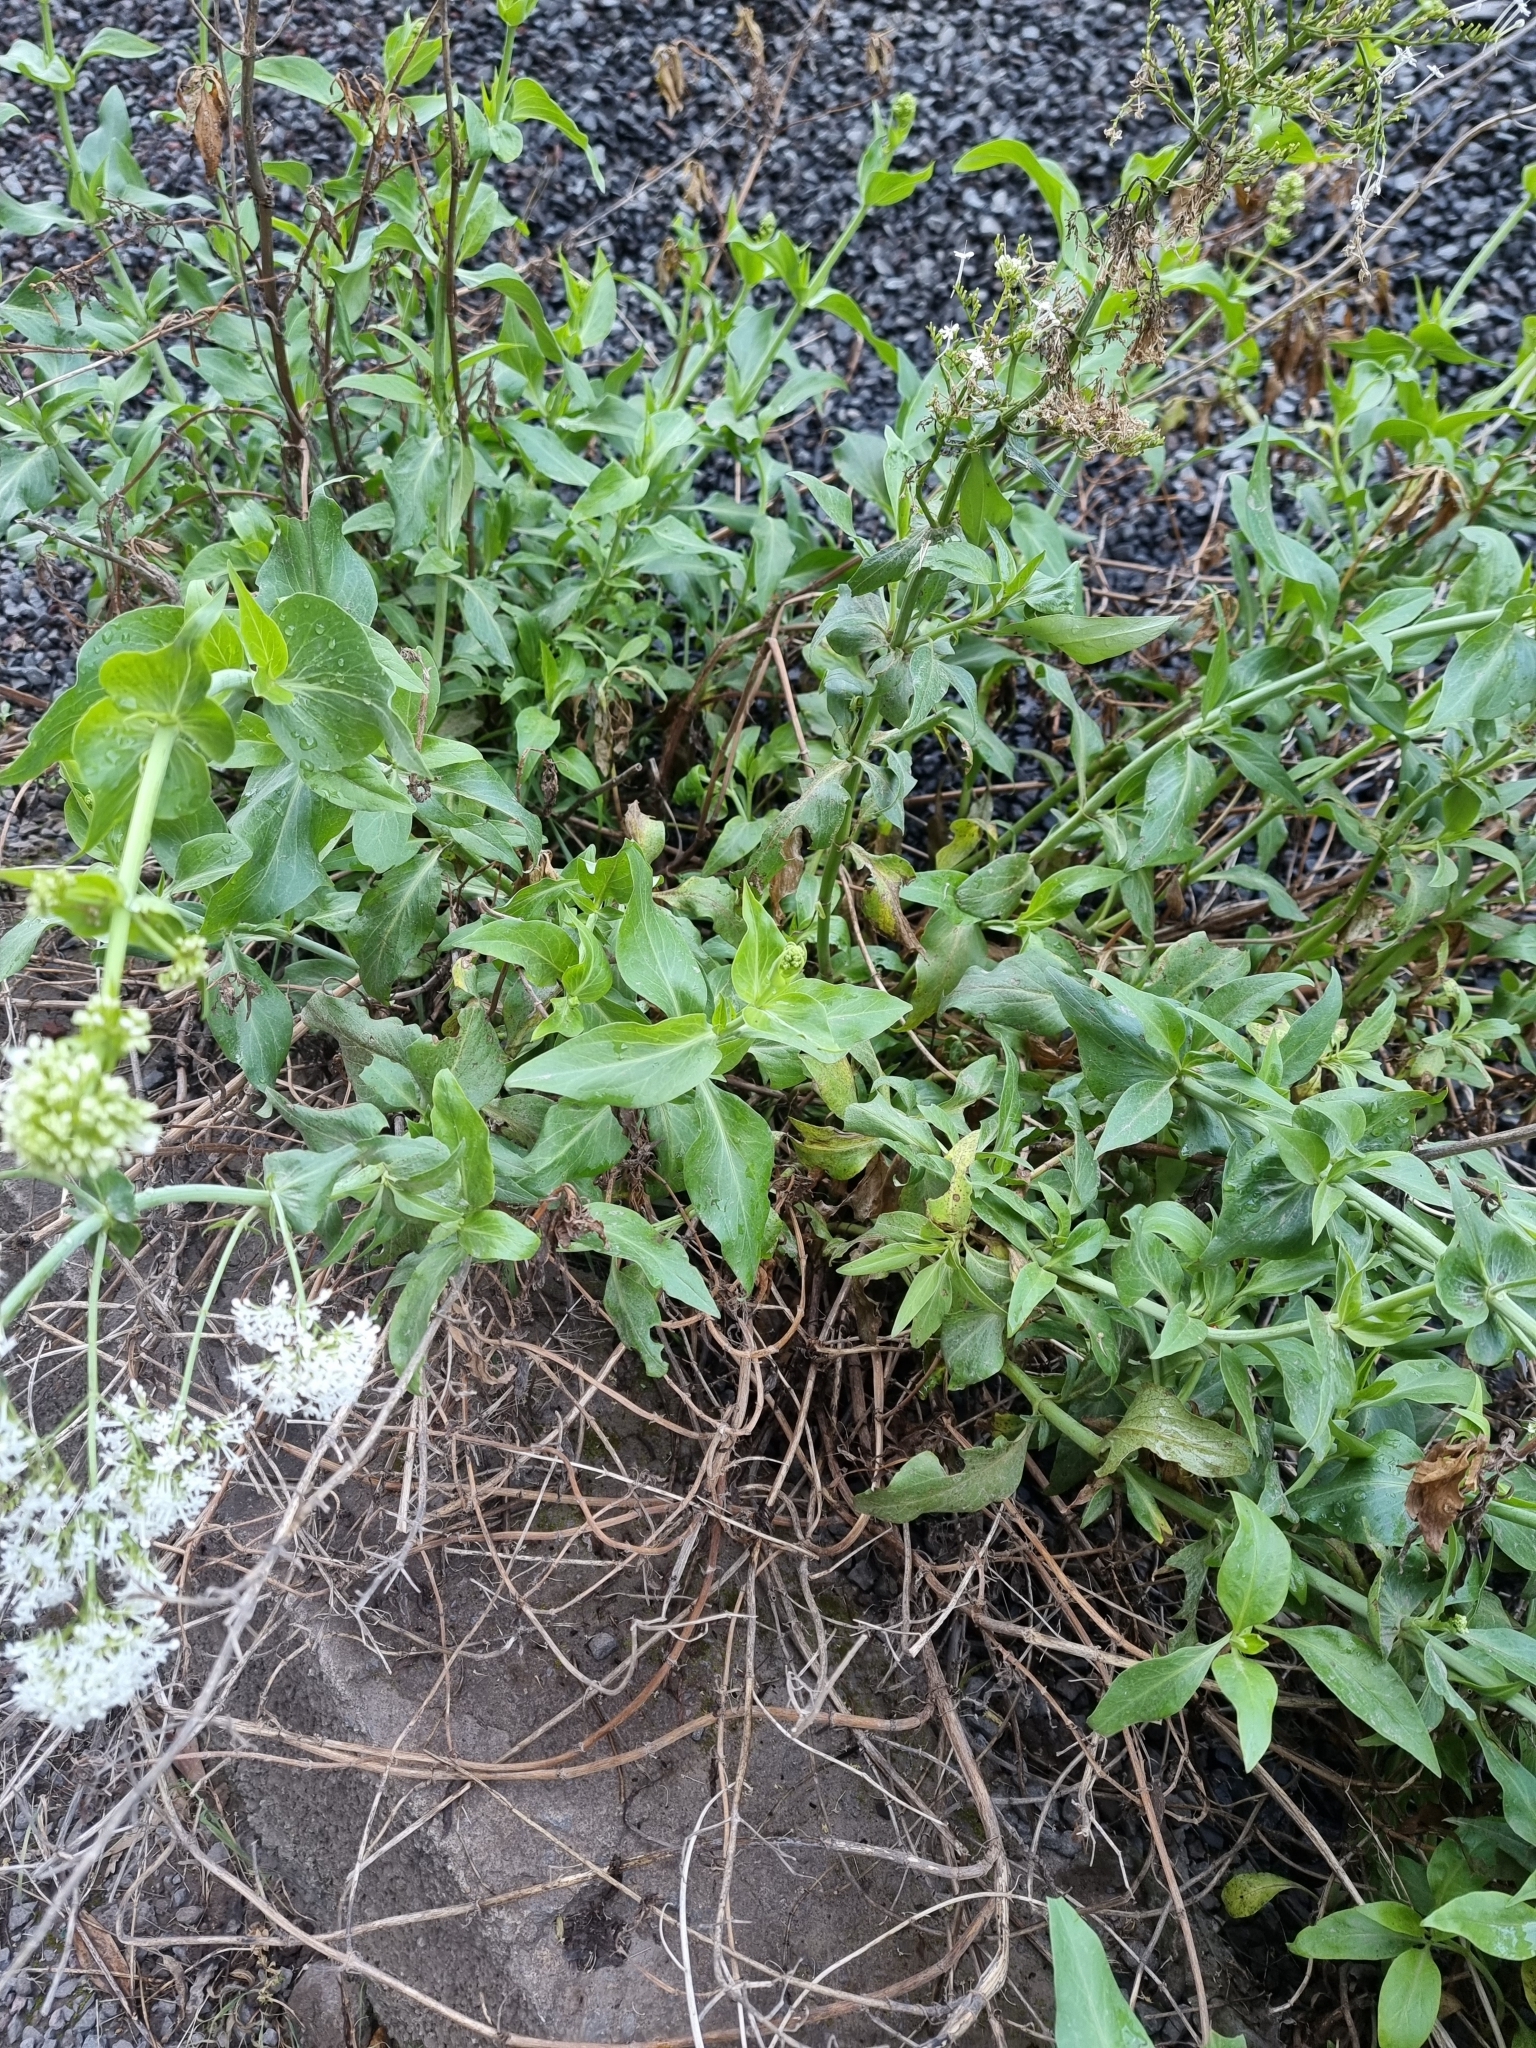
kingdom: Plantae
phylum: Tracheophyta
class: Magnoliopsida
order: Dipsacales
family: Caprifoliaceae
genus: Centranthus
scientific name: Centranthus ruber
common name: Red valerian
